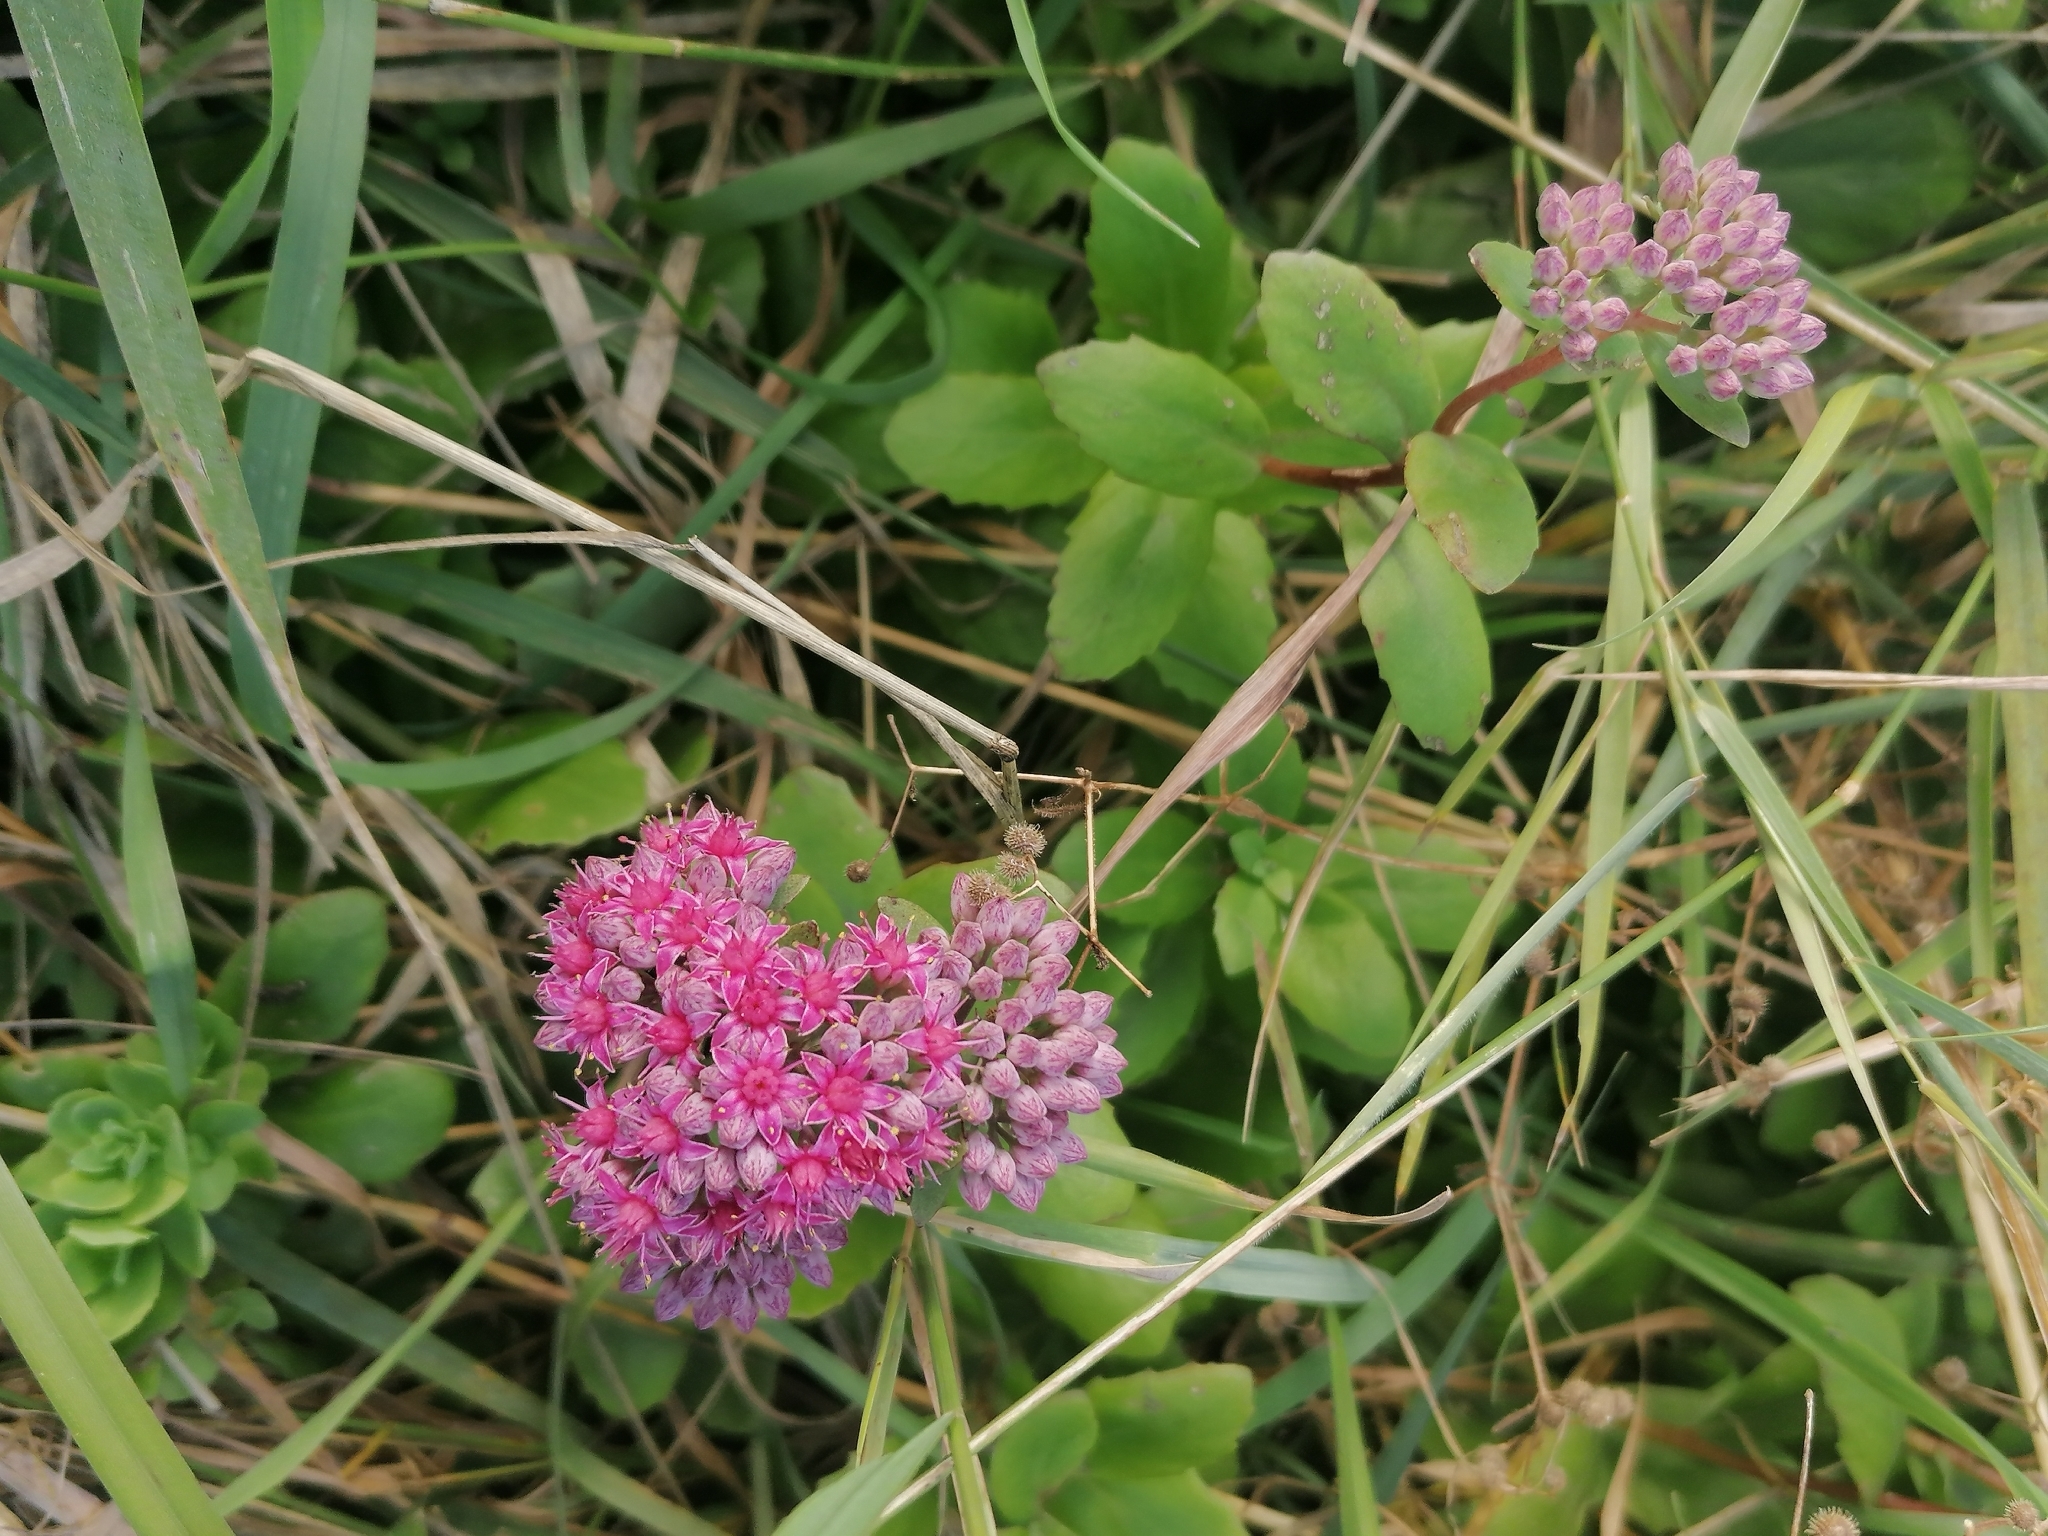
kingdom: Plantae
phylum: Tracheophyta
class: Magnoliopsida
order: Saxifragales
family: Crassulaceae
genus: Hylotelephium
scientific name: Hylotelephium telephium
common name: Live-forever
